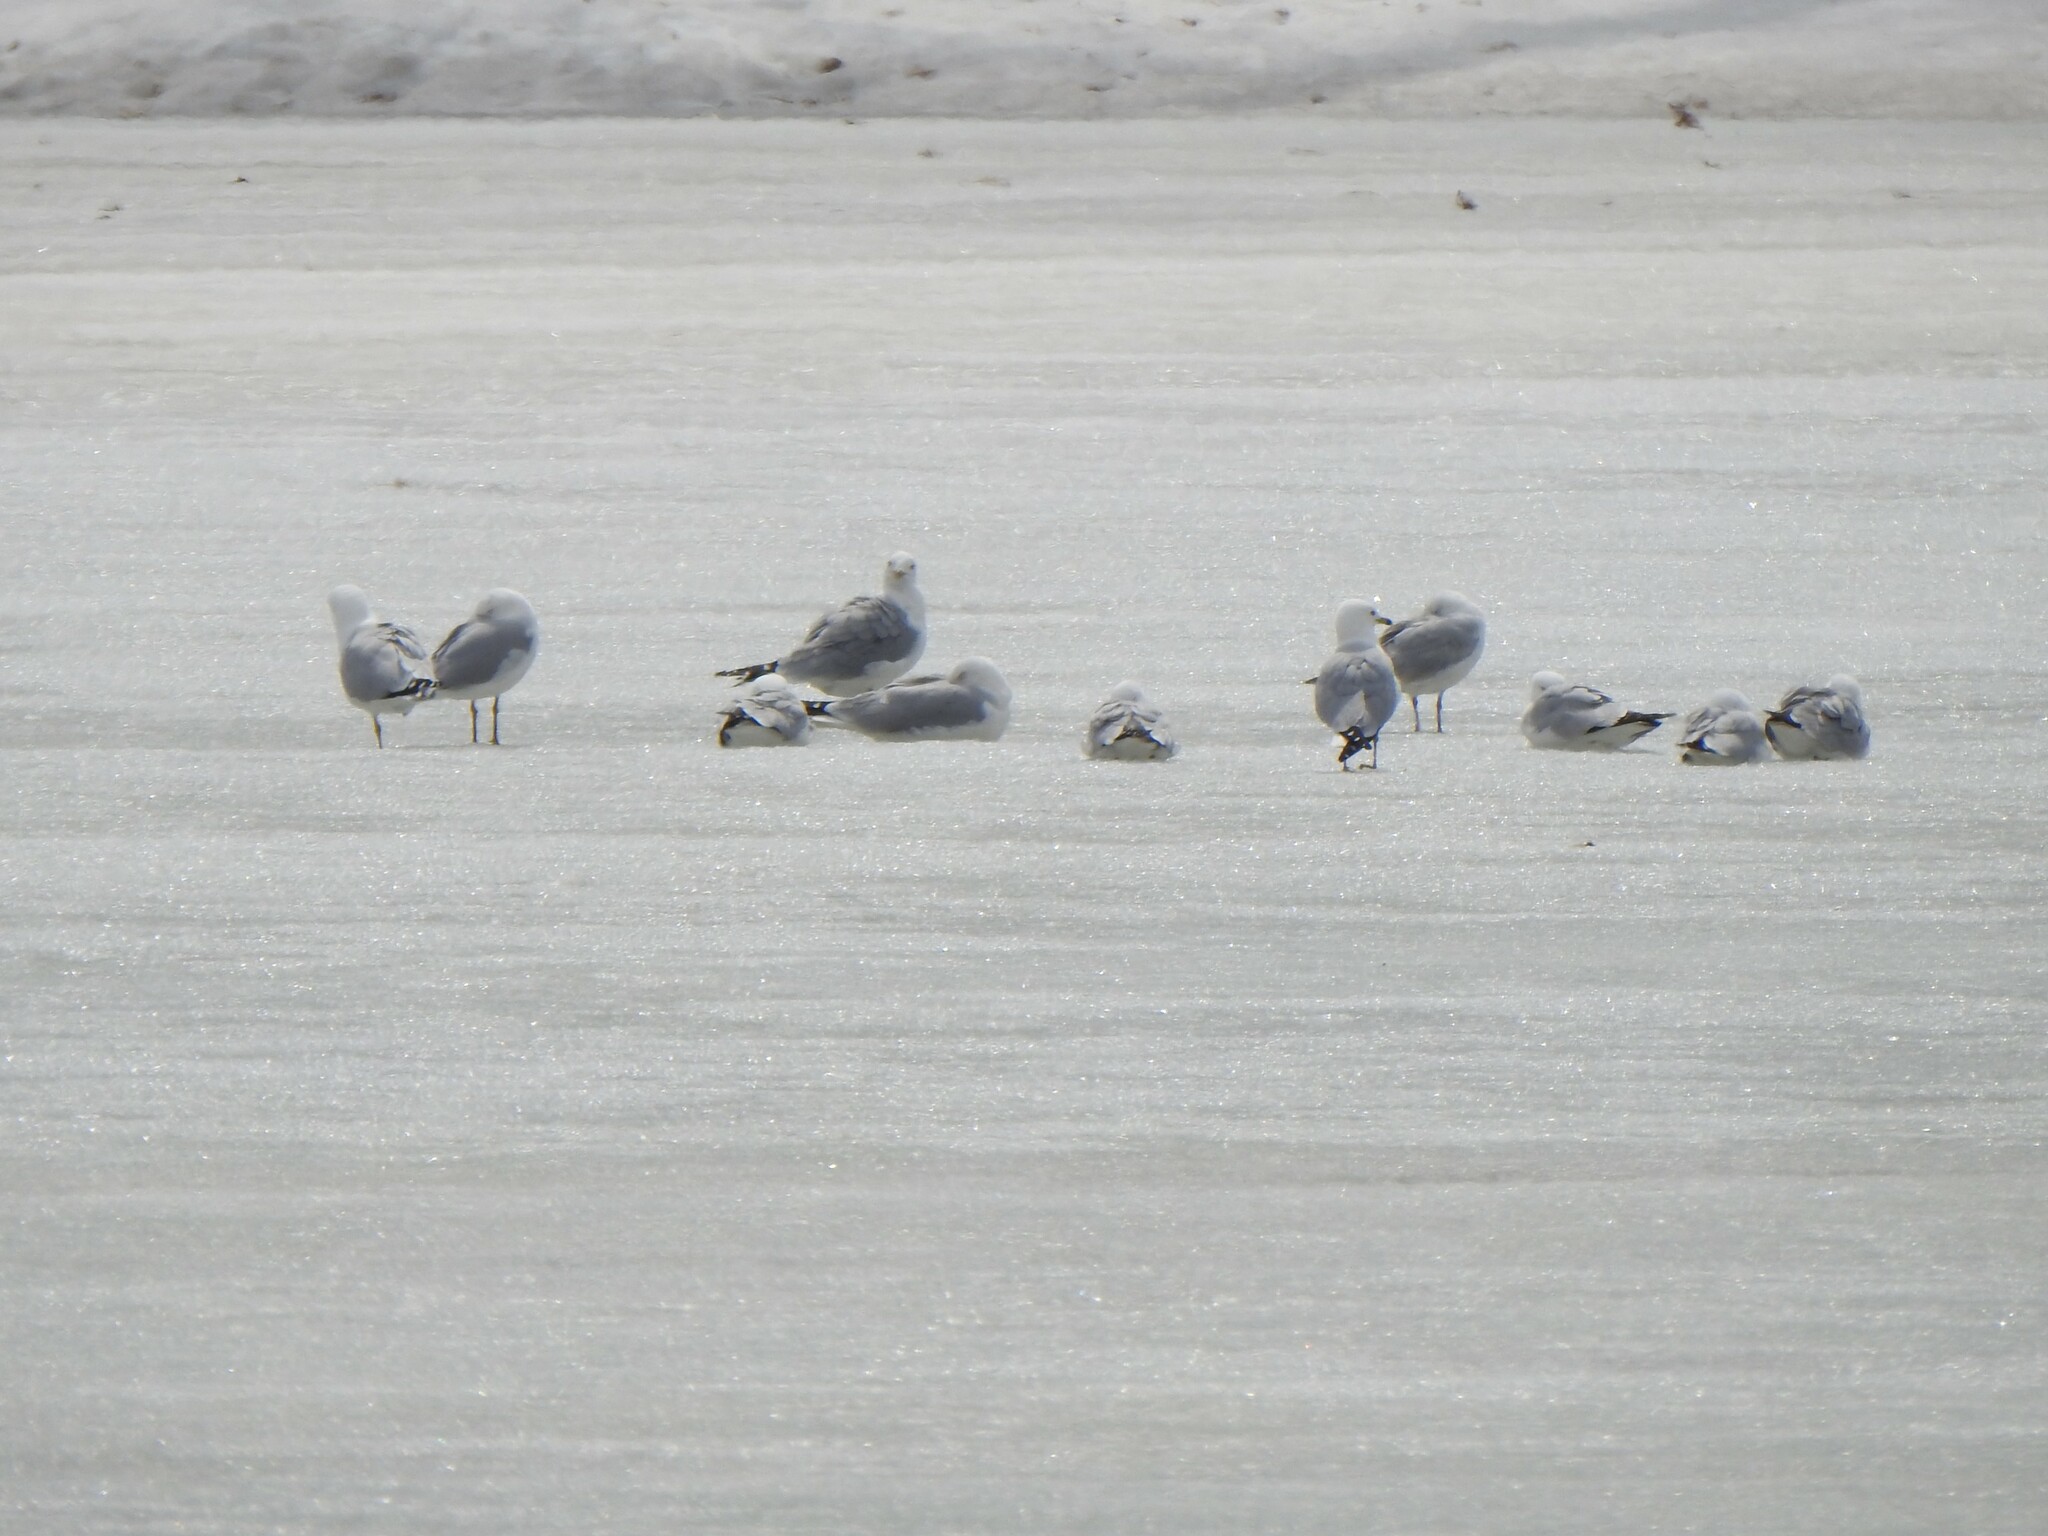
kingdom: Animalia
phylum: Chordata
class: Aves
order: Charadriiformes
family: Laridae
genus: Larus
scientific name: Larus delawarensis
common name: Ring-billed gull
